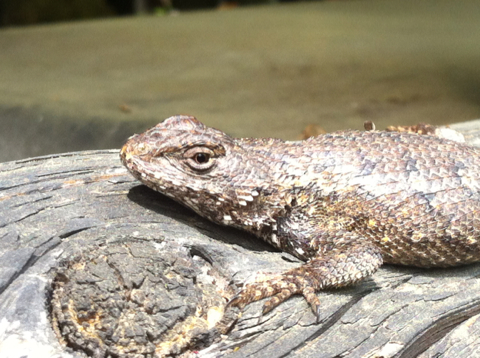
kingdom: Animalia
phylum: Chordata
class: Squamata
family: Phrynosomatidae
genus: Sceloporus
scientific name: Sceloporus undulatus
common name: Eastern fence lizard
